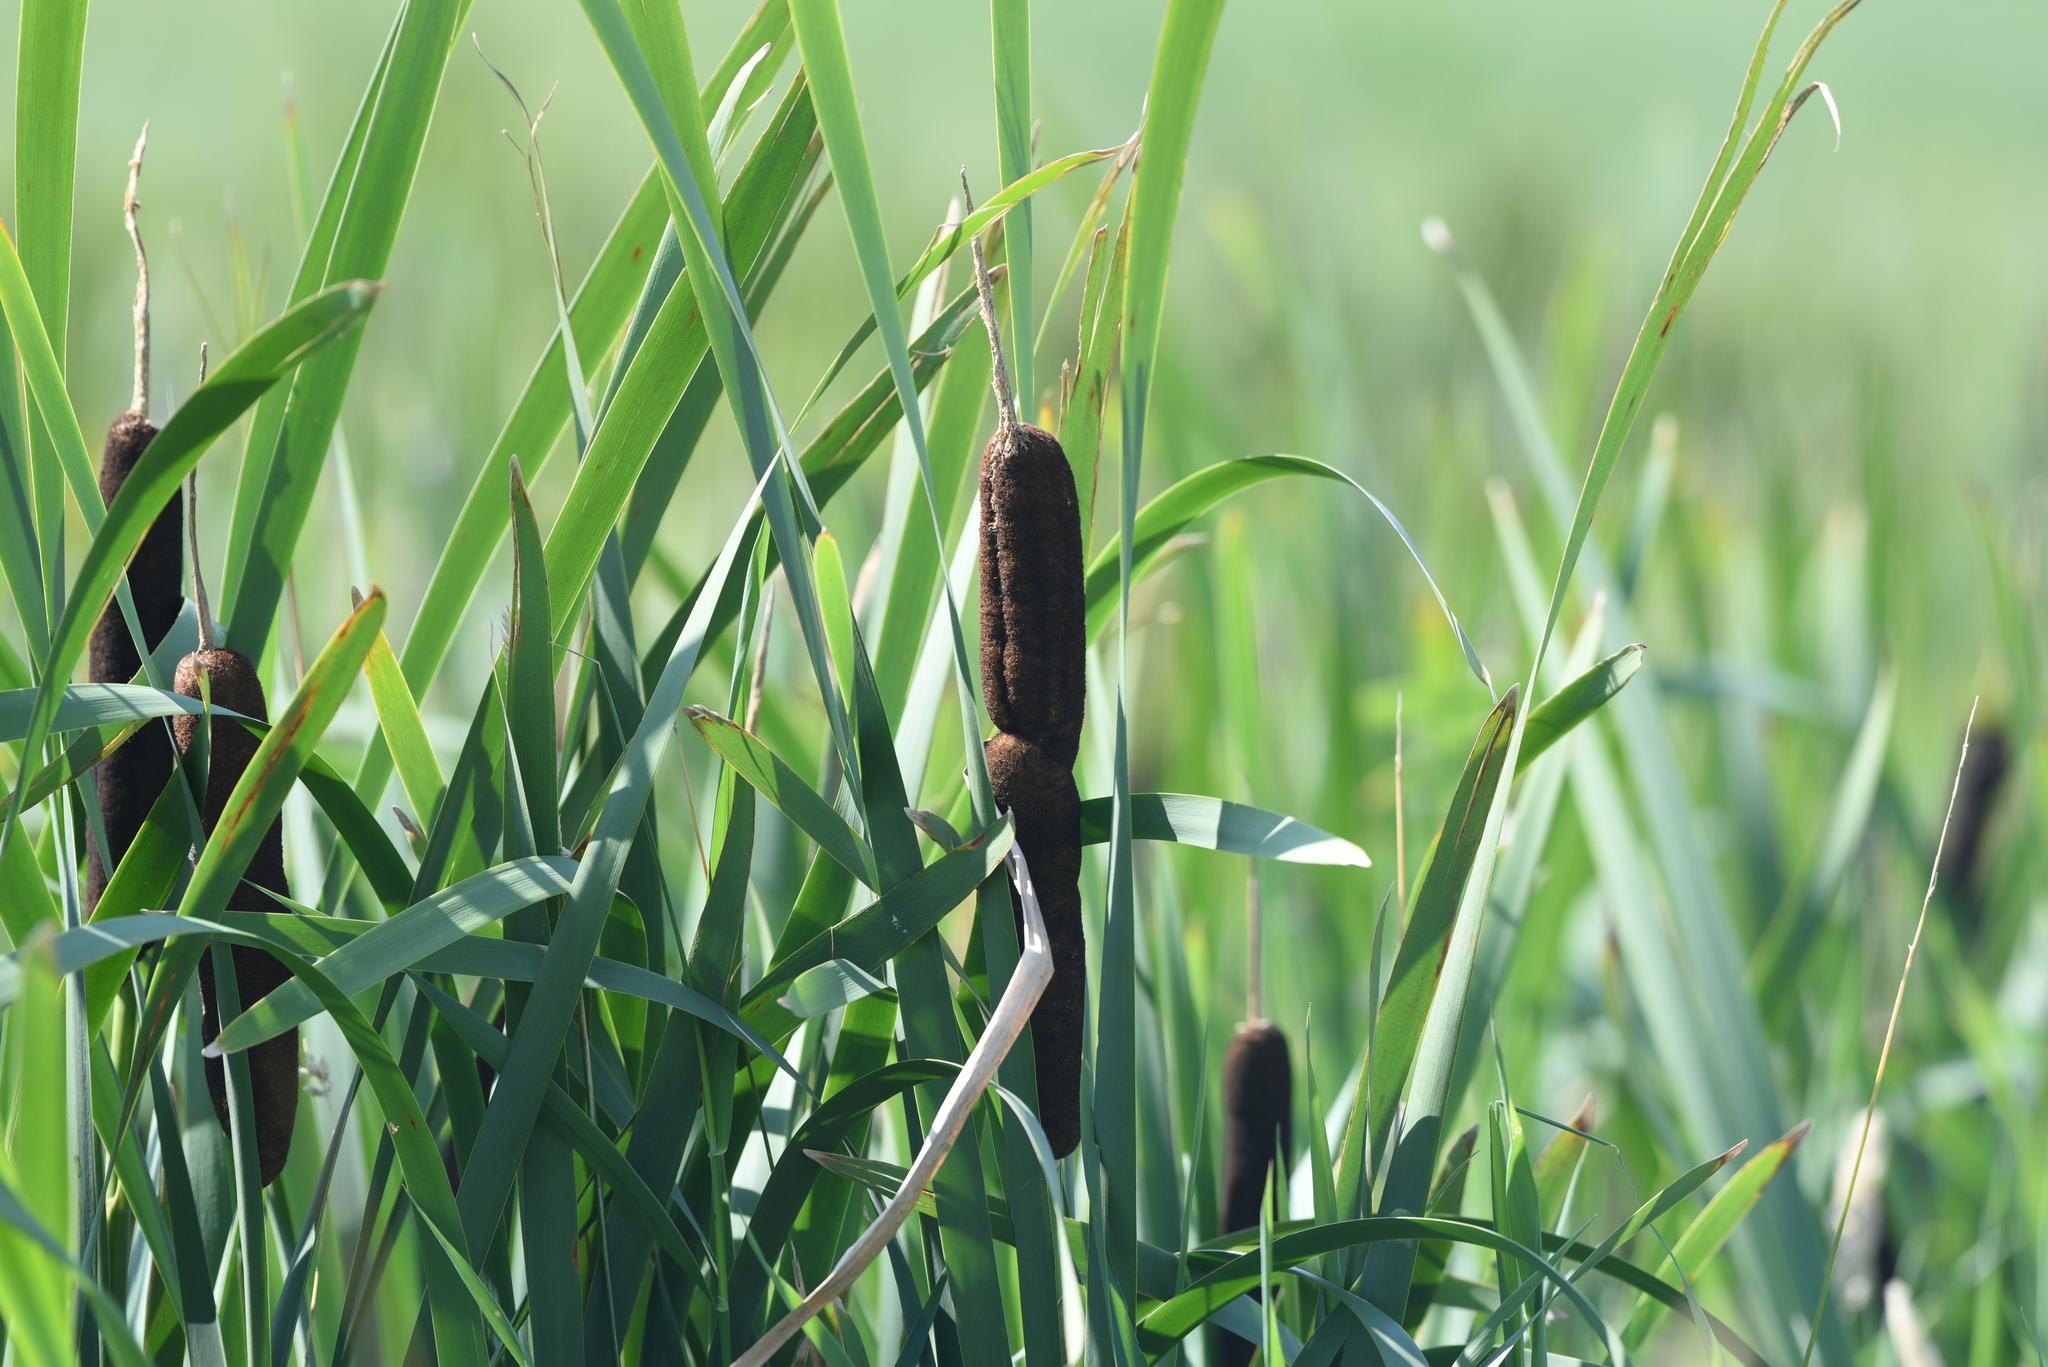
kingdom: Plantae
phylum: Tracheophyta
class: Liliopsida
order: Poales
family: Typhaceae
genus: Typha
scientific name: Typha latifolia
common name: Broadleaf cattail
